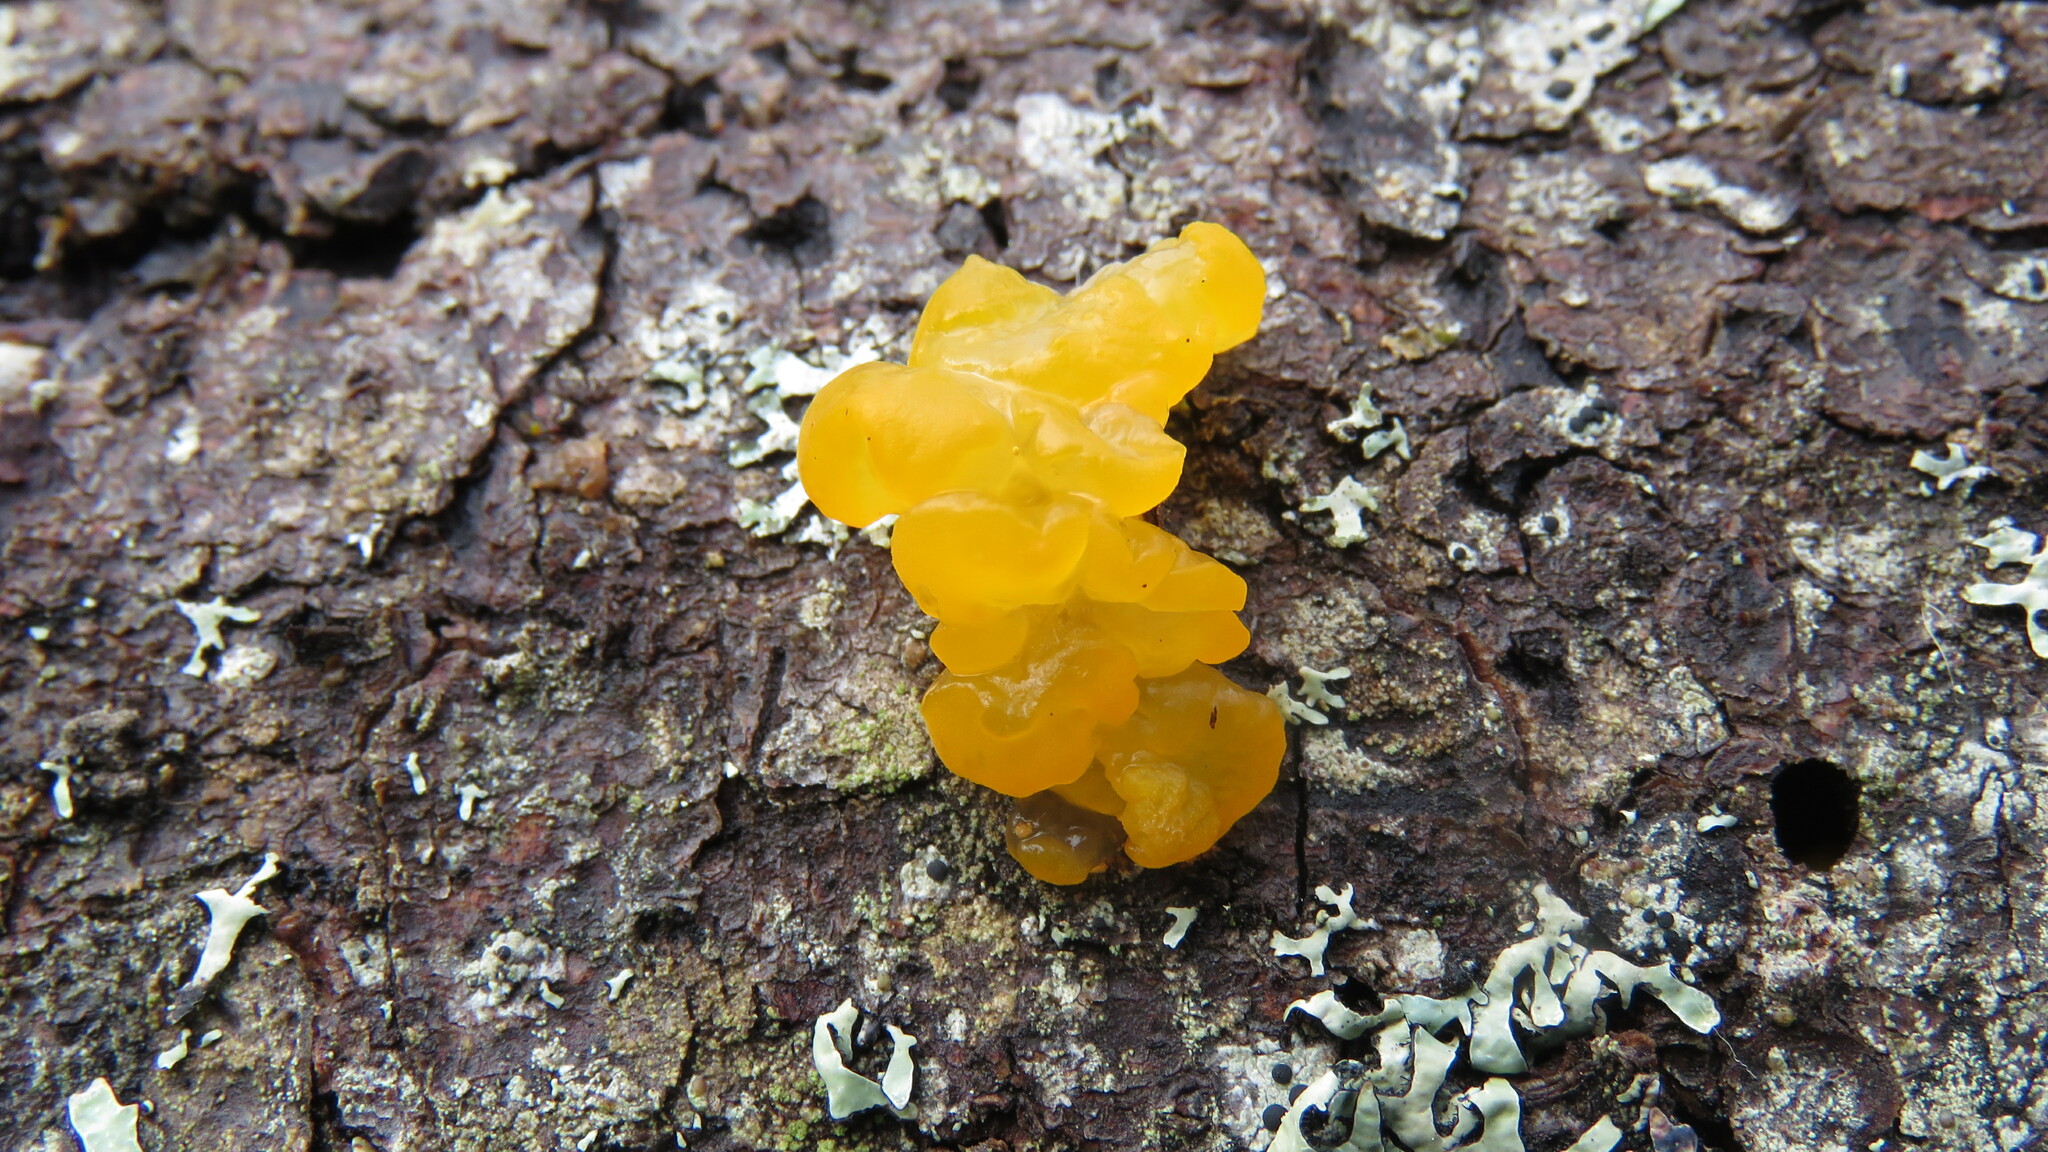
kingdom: Fungi
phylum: Basidiomycota
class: Dacrymycetes
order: Dacrymycetales
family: Dacrymycetaceae
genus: Dacrymyces
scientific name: Dacrymyces chrysospermus
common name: Orange jelly spot
